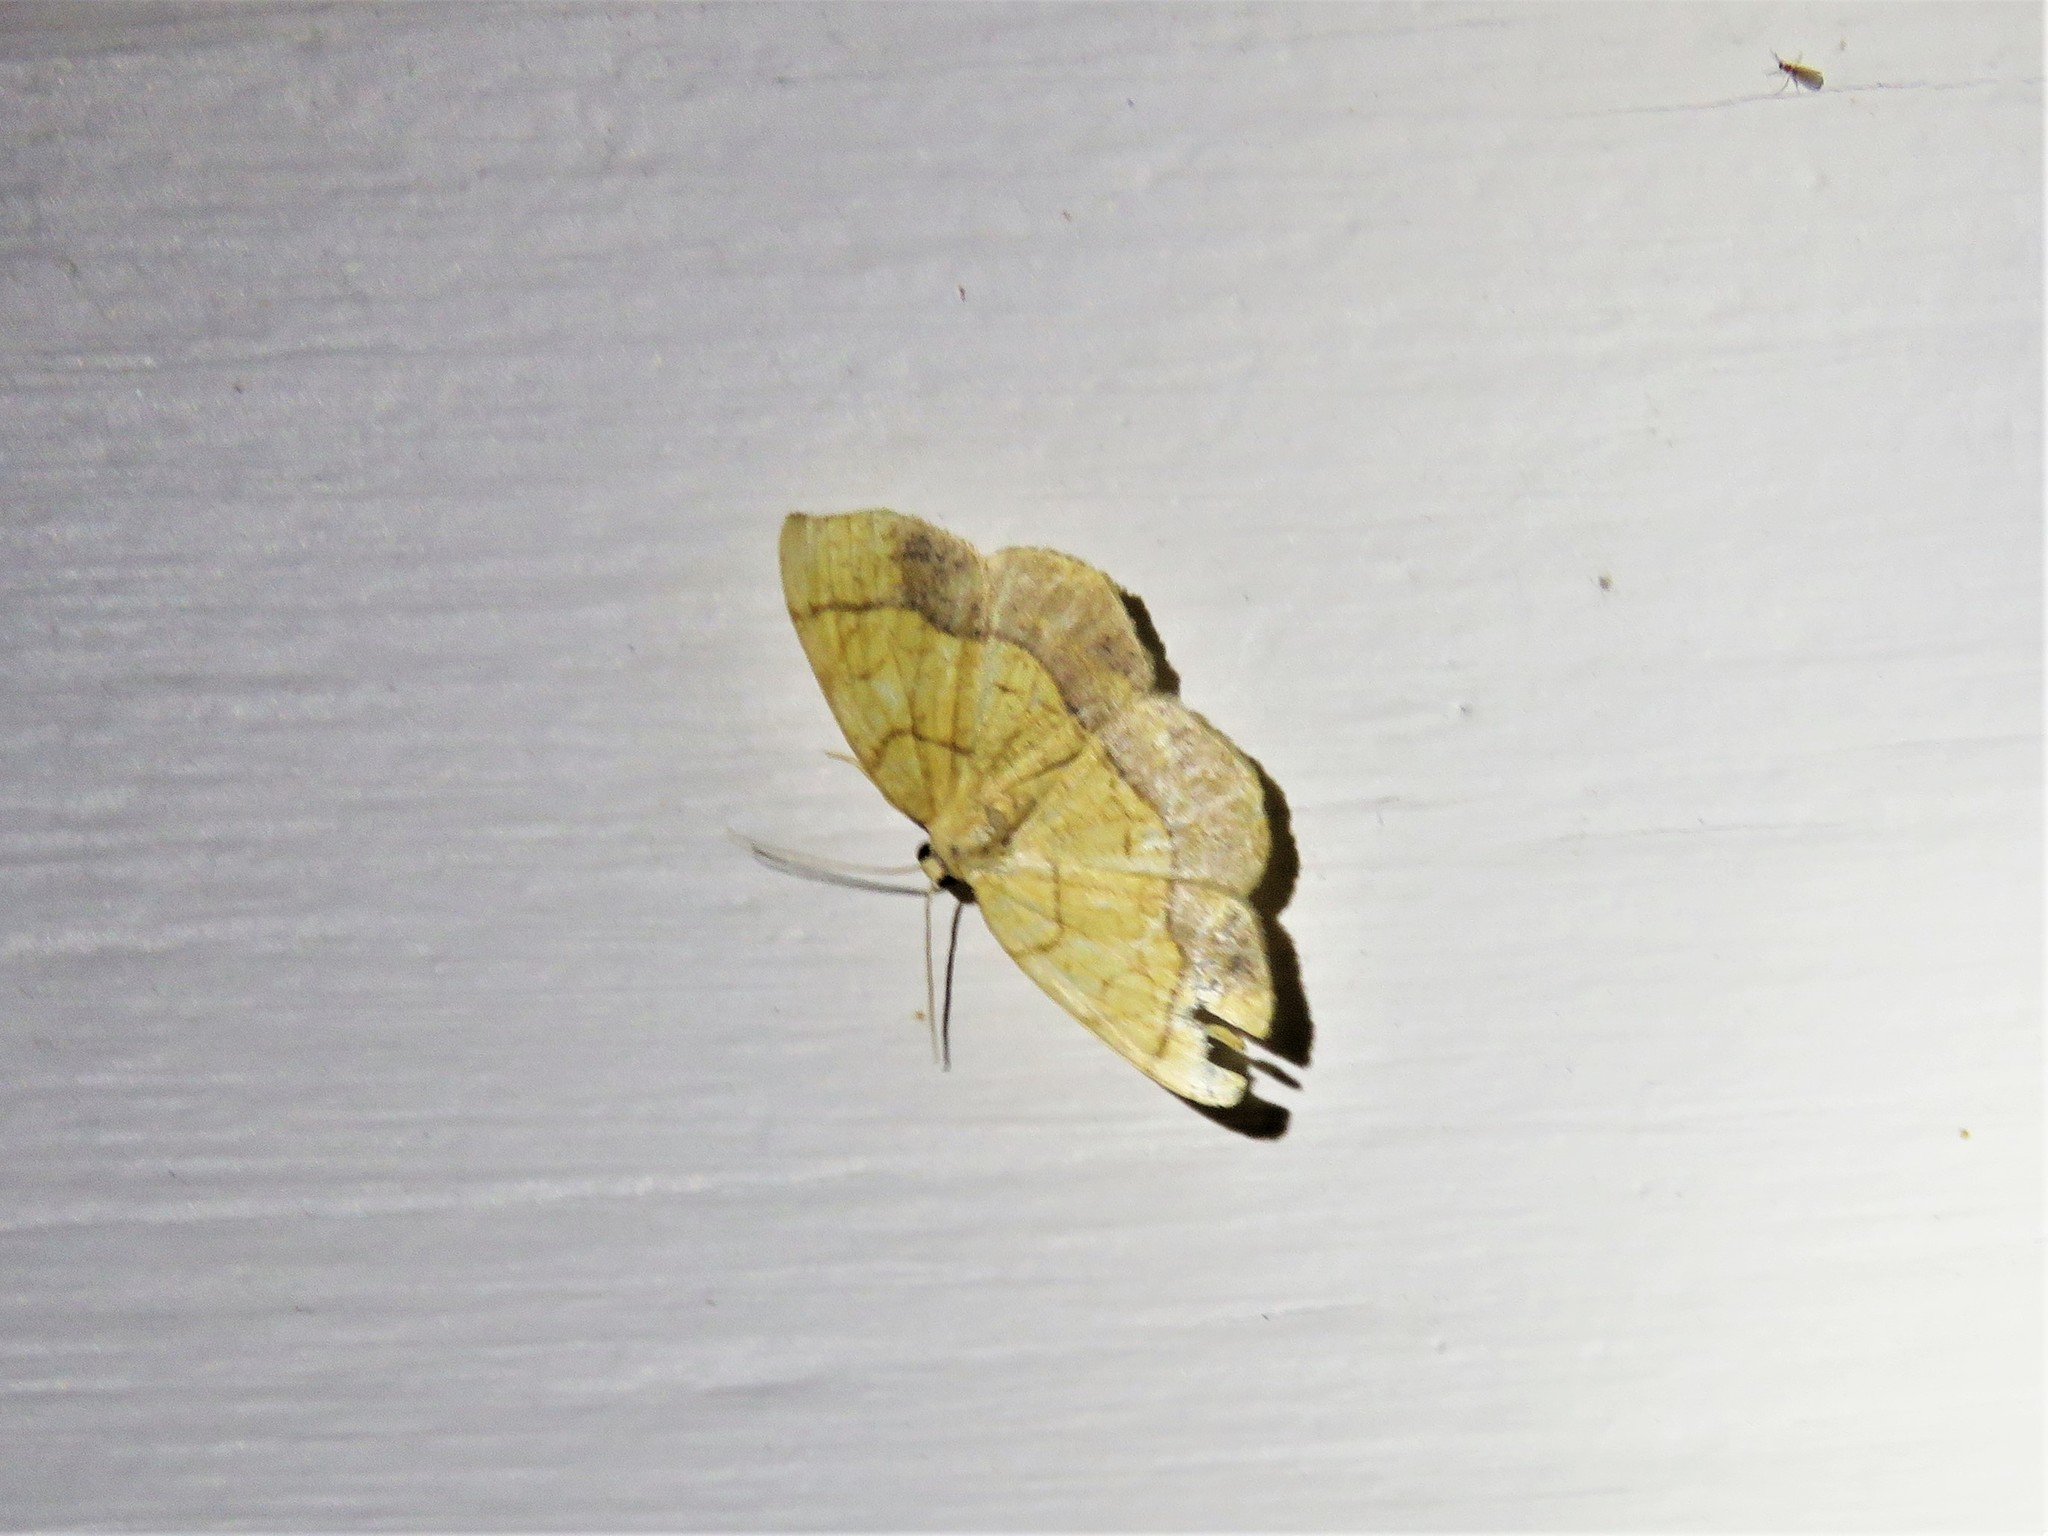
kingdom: Animalia
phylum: Arthropoda
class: Insecta
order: Lepidoptera
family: Geometridae
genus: Nematocampa
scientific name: Nematocampa resistaria
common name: Horned spanworm moth
